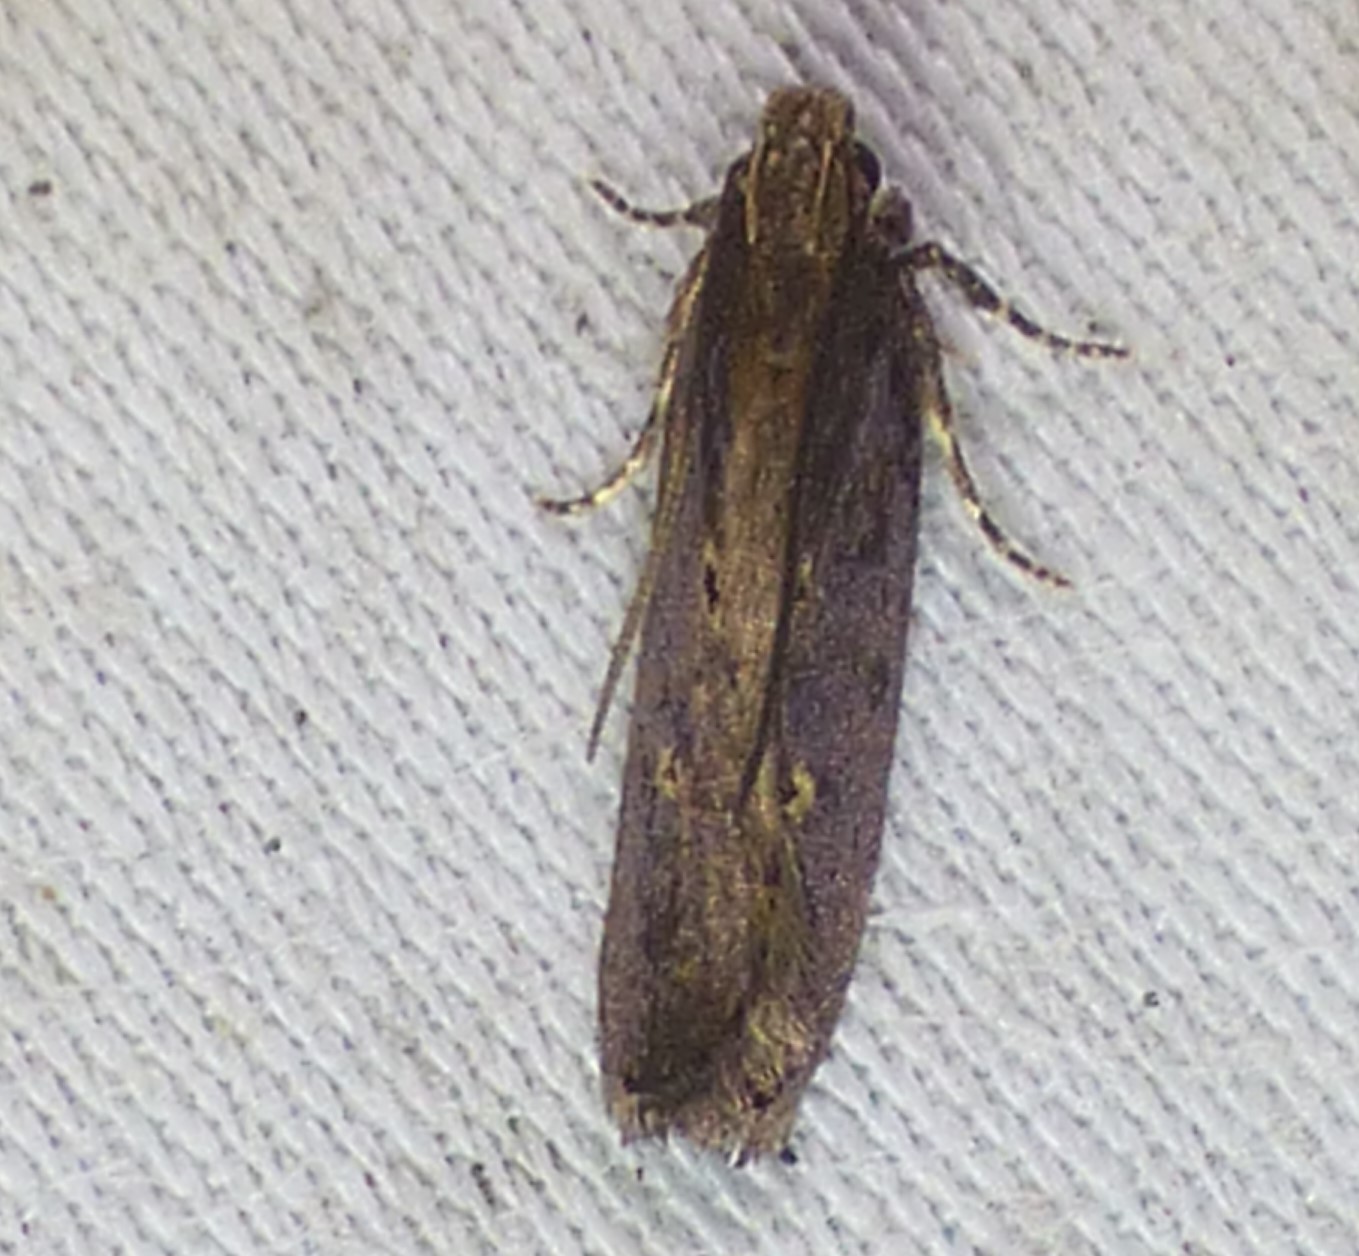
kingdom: Animalia
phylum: Arthropoda
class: Insecta
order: Lepidoptera
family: Gelechiidae
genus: Chionodes
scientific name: Chionodes discoocellella
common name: Eye-ringed chionodes moth
